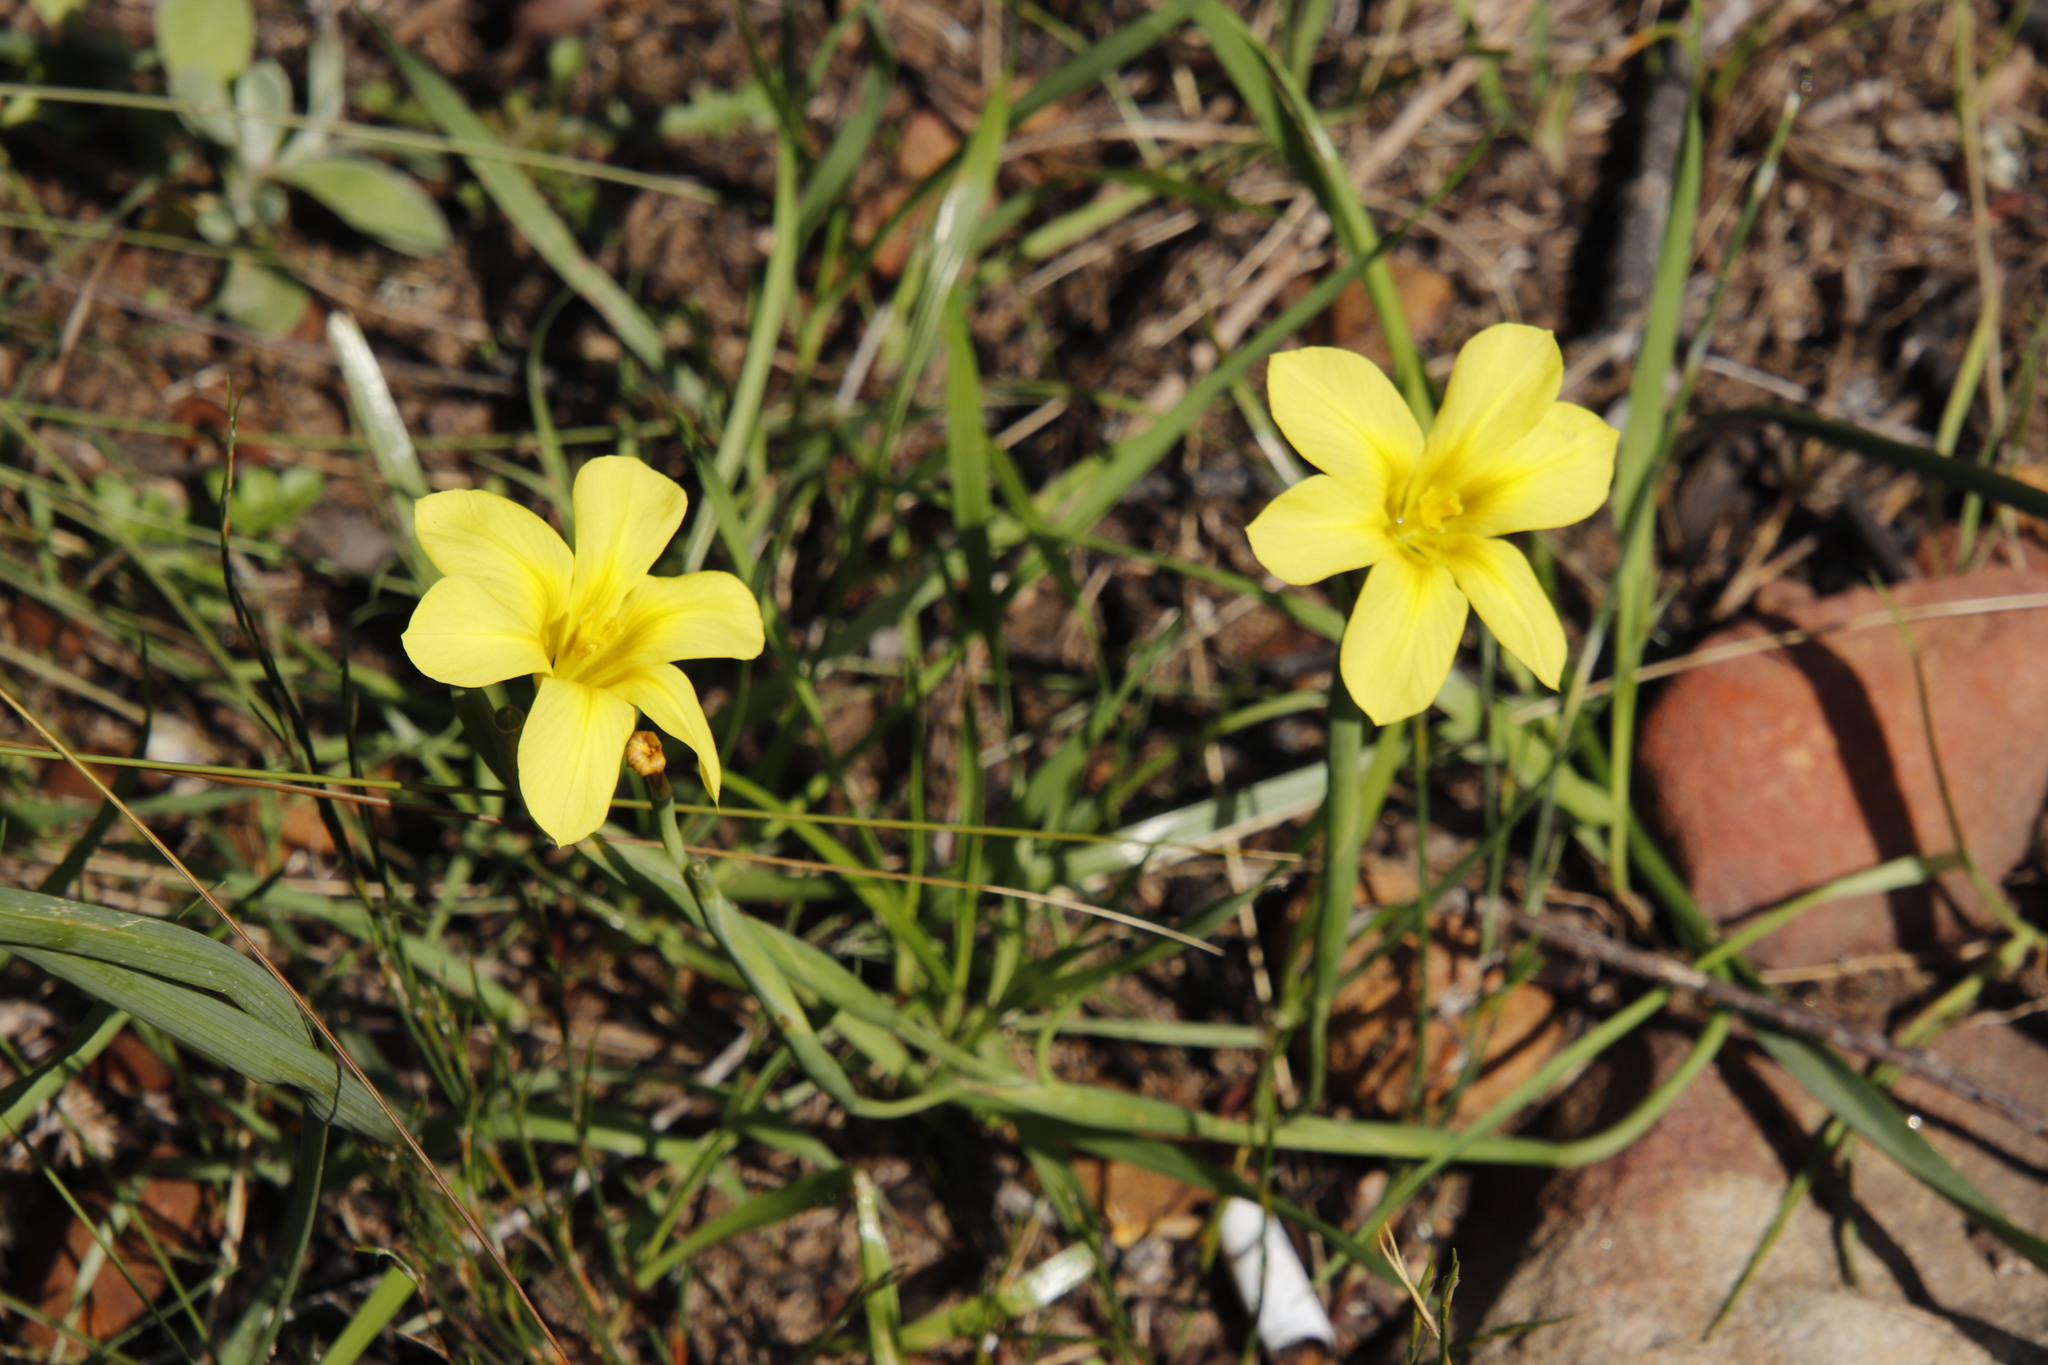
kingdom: Plantae
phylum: Tracheophyta
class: Liliopsida
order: Asparagales
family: Iridaceae
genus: Moraea
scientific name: Moraea ochroleuca
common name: Red tulp
